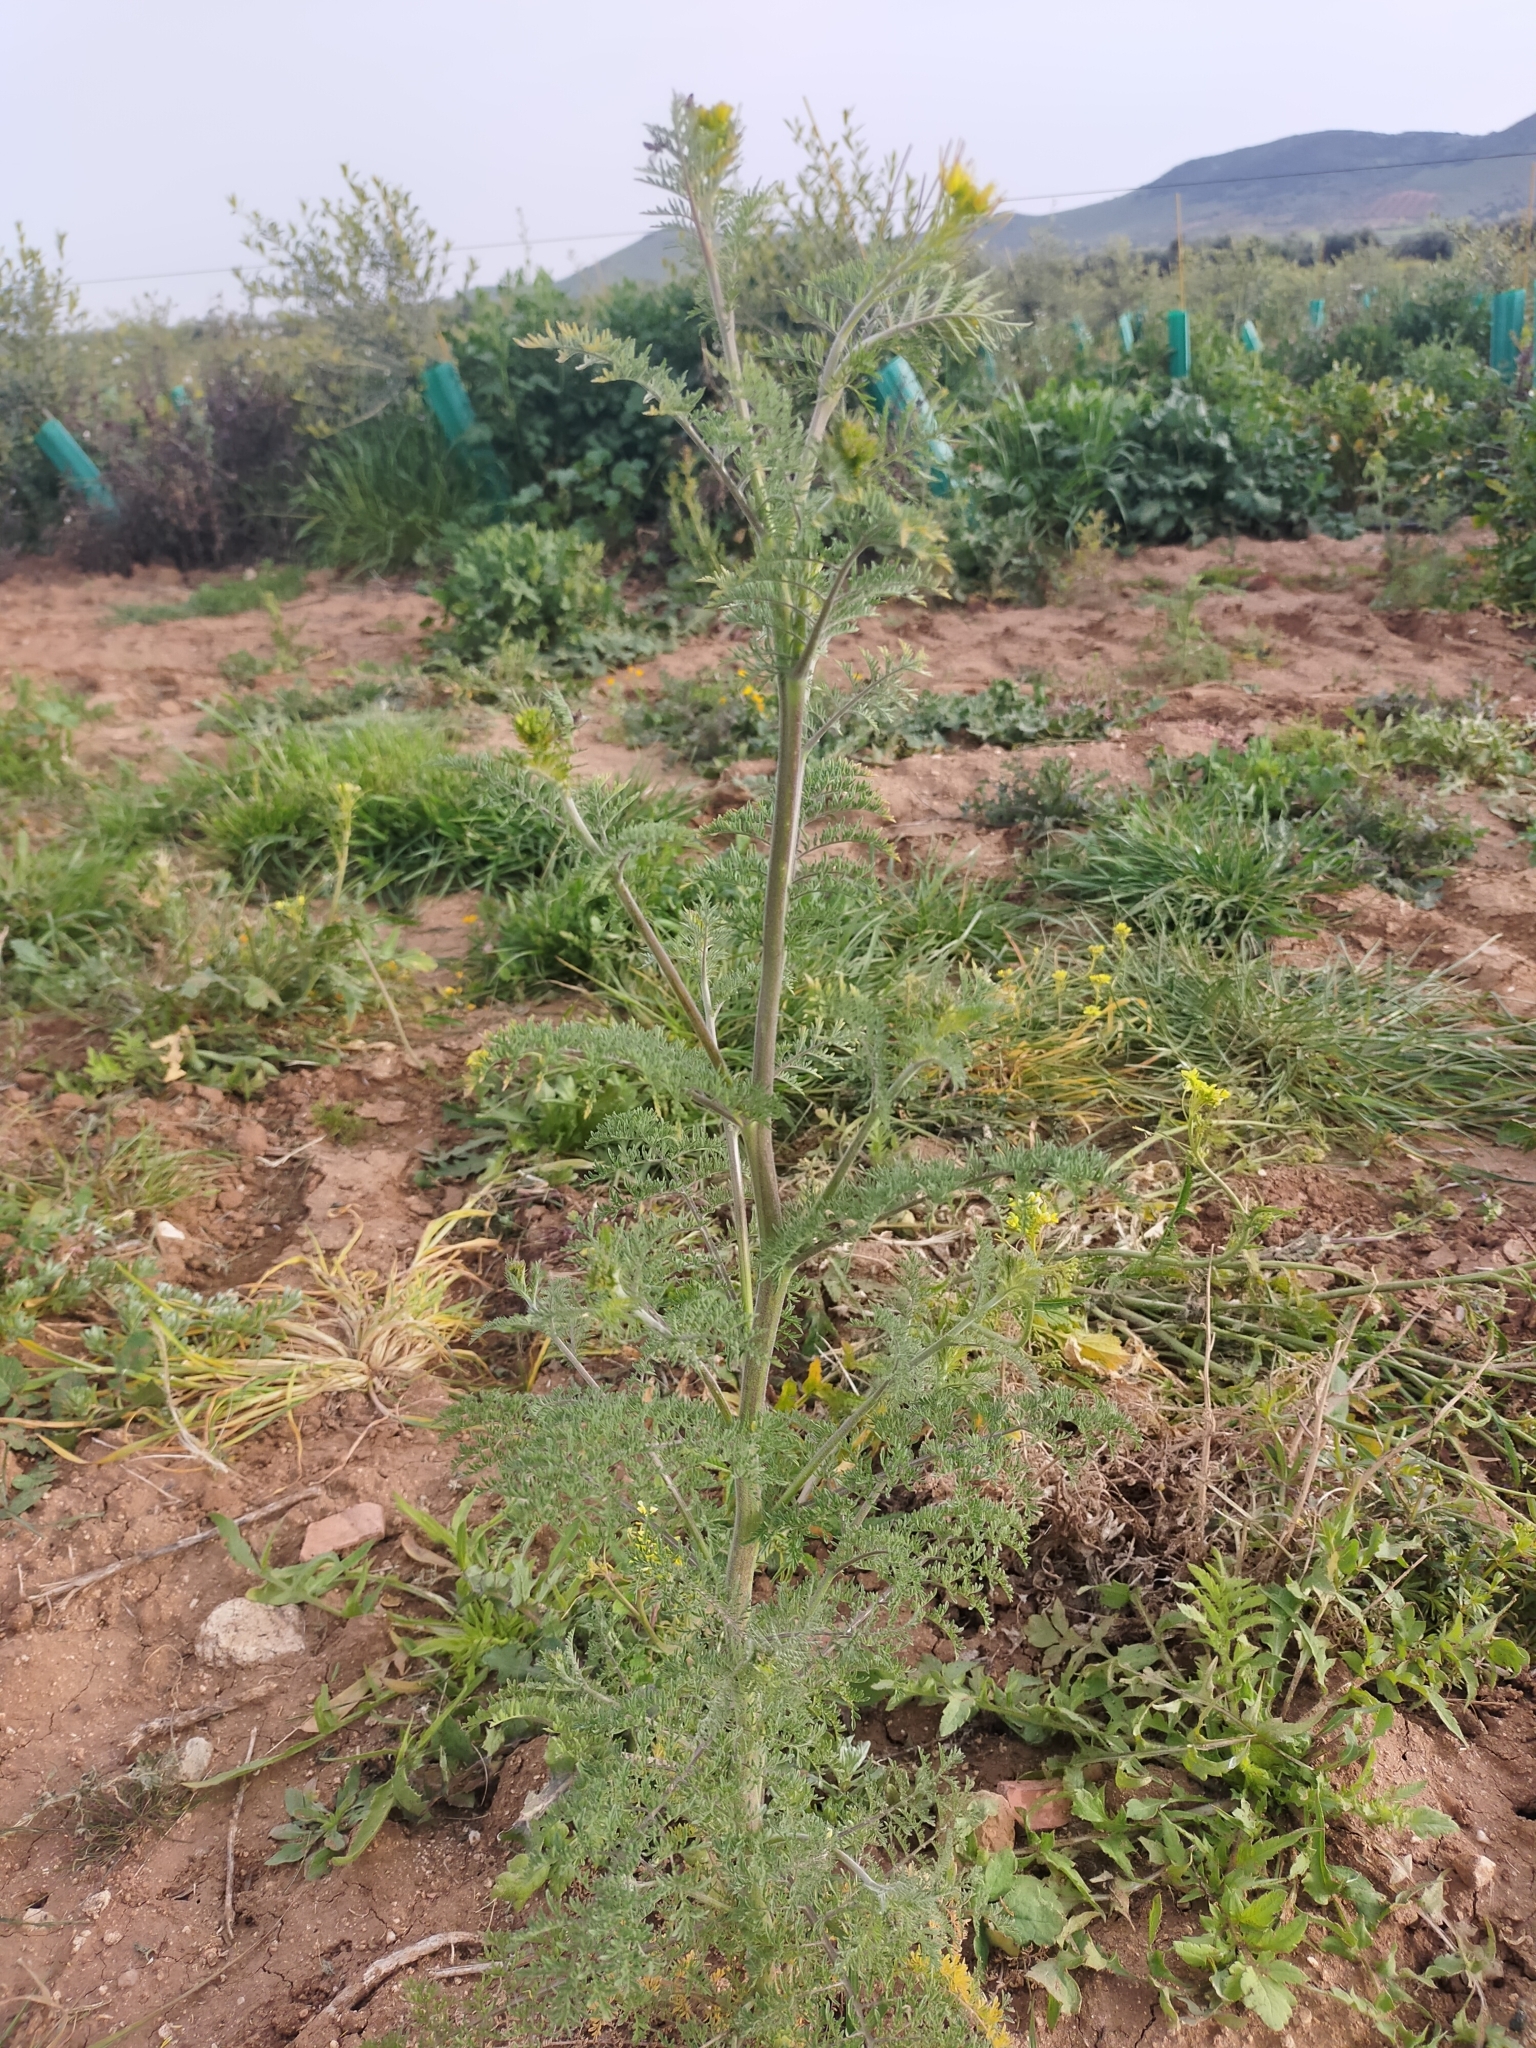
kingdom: Plantae
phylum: Tracheophyta
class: Magnoliopsida
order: Brassicales
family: Brassicaceae
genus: Descurainia
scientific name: Descurainia sophia
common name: Flixweed
